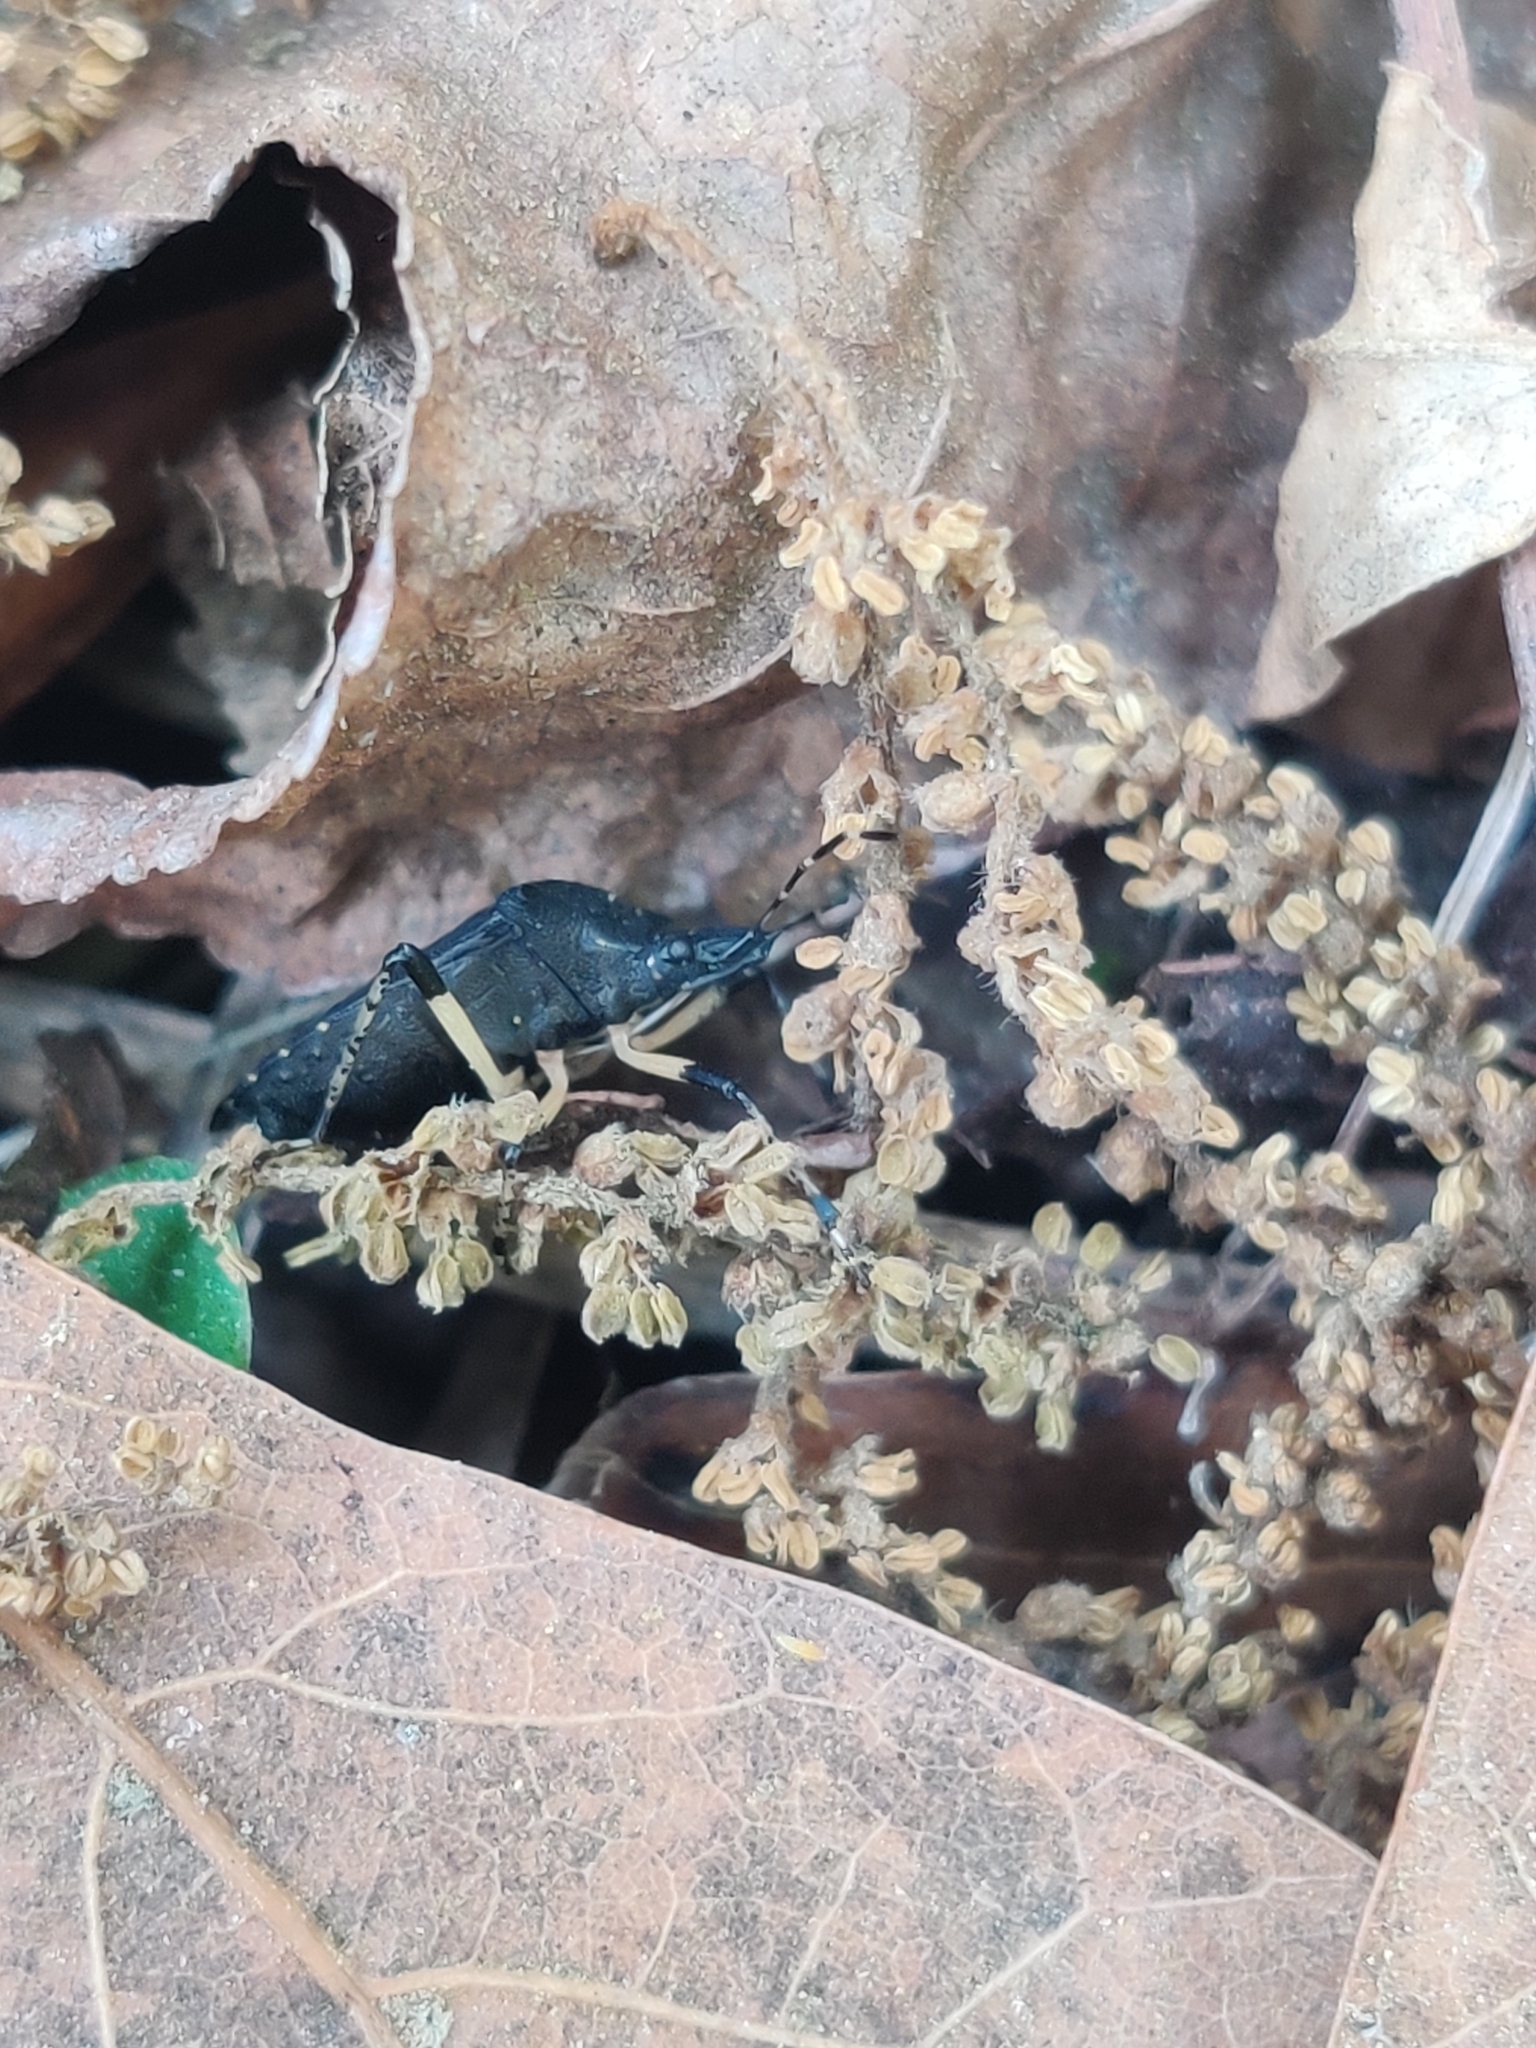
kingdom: Animalia
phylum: Arthropoda
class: Insecta
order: Hemiptera
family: Pentatomidae
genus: Proxys
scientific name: Proxys punctulatus
